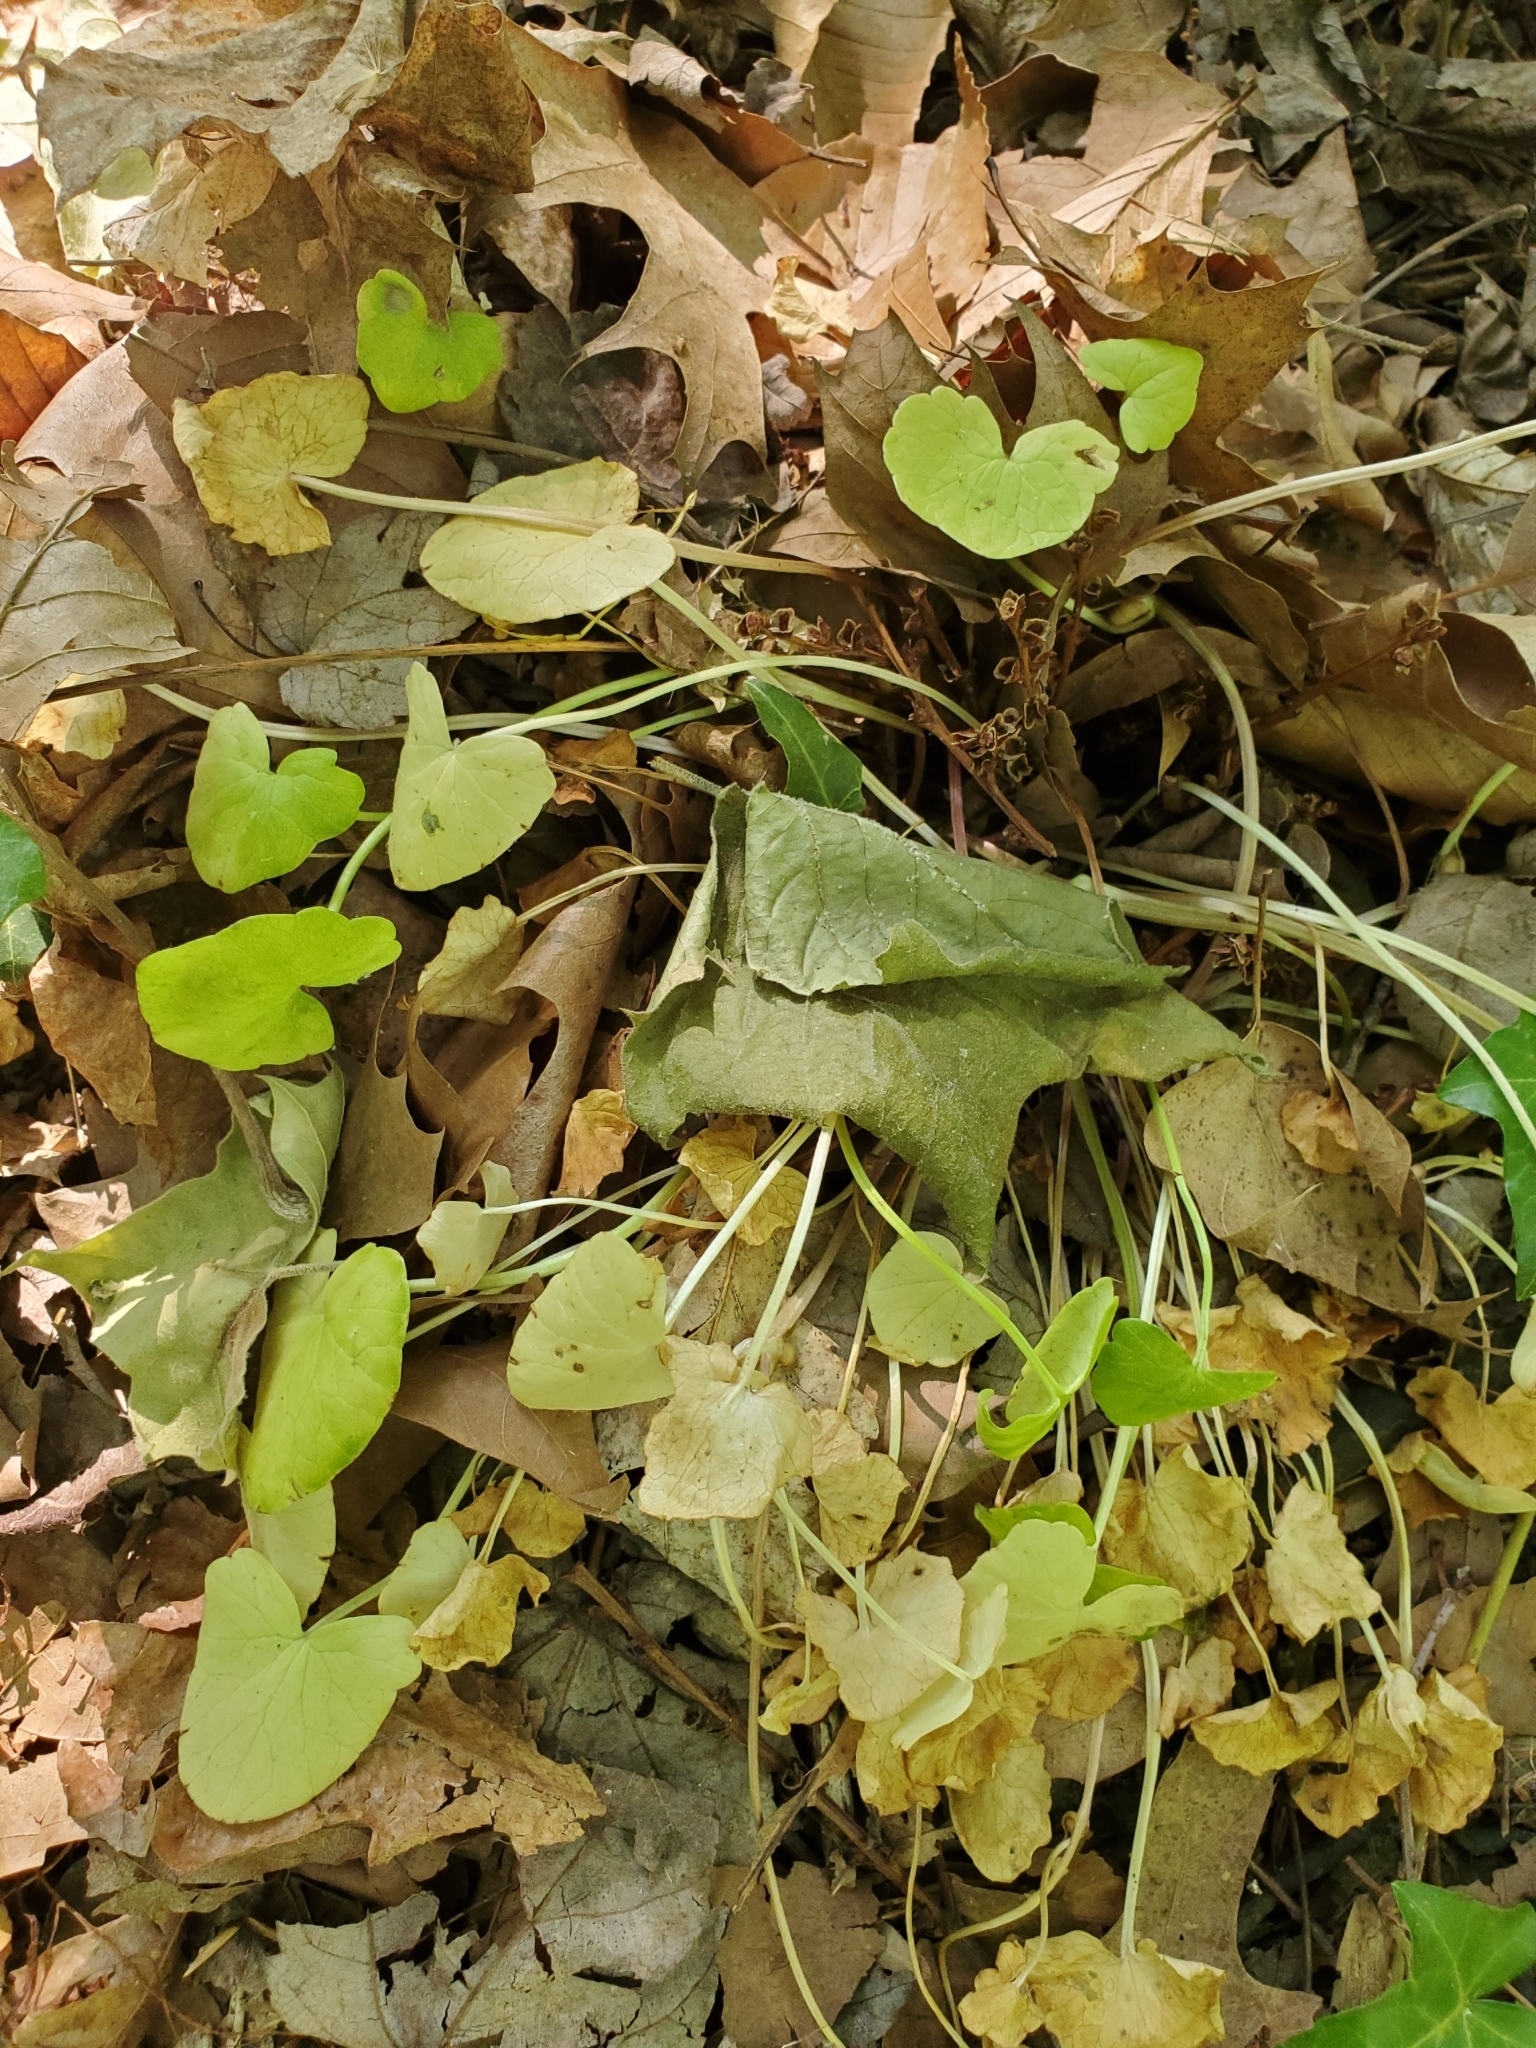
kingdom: Plantae
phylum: Tracheophyta
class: Magnoliopsida
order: Ranunculales
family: Ranunculaceae
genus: Ficaria
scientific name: Ficaria verna
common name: Lesser celandine
